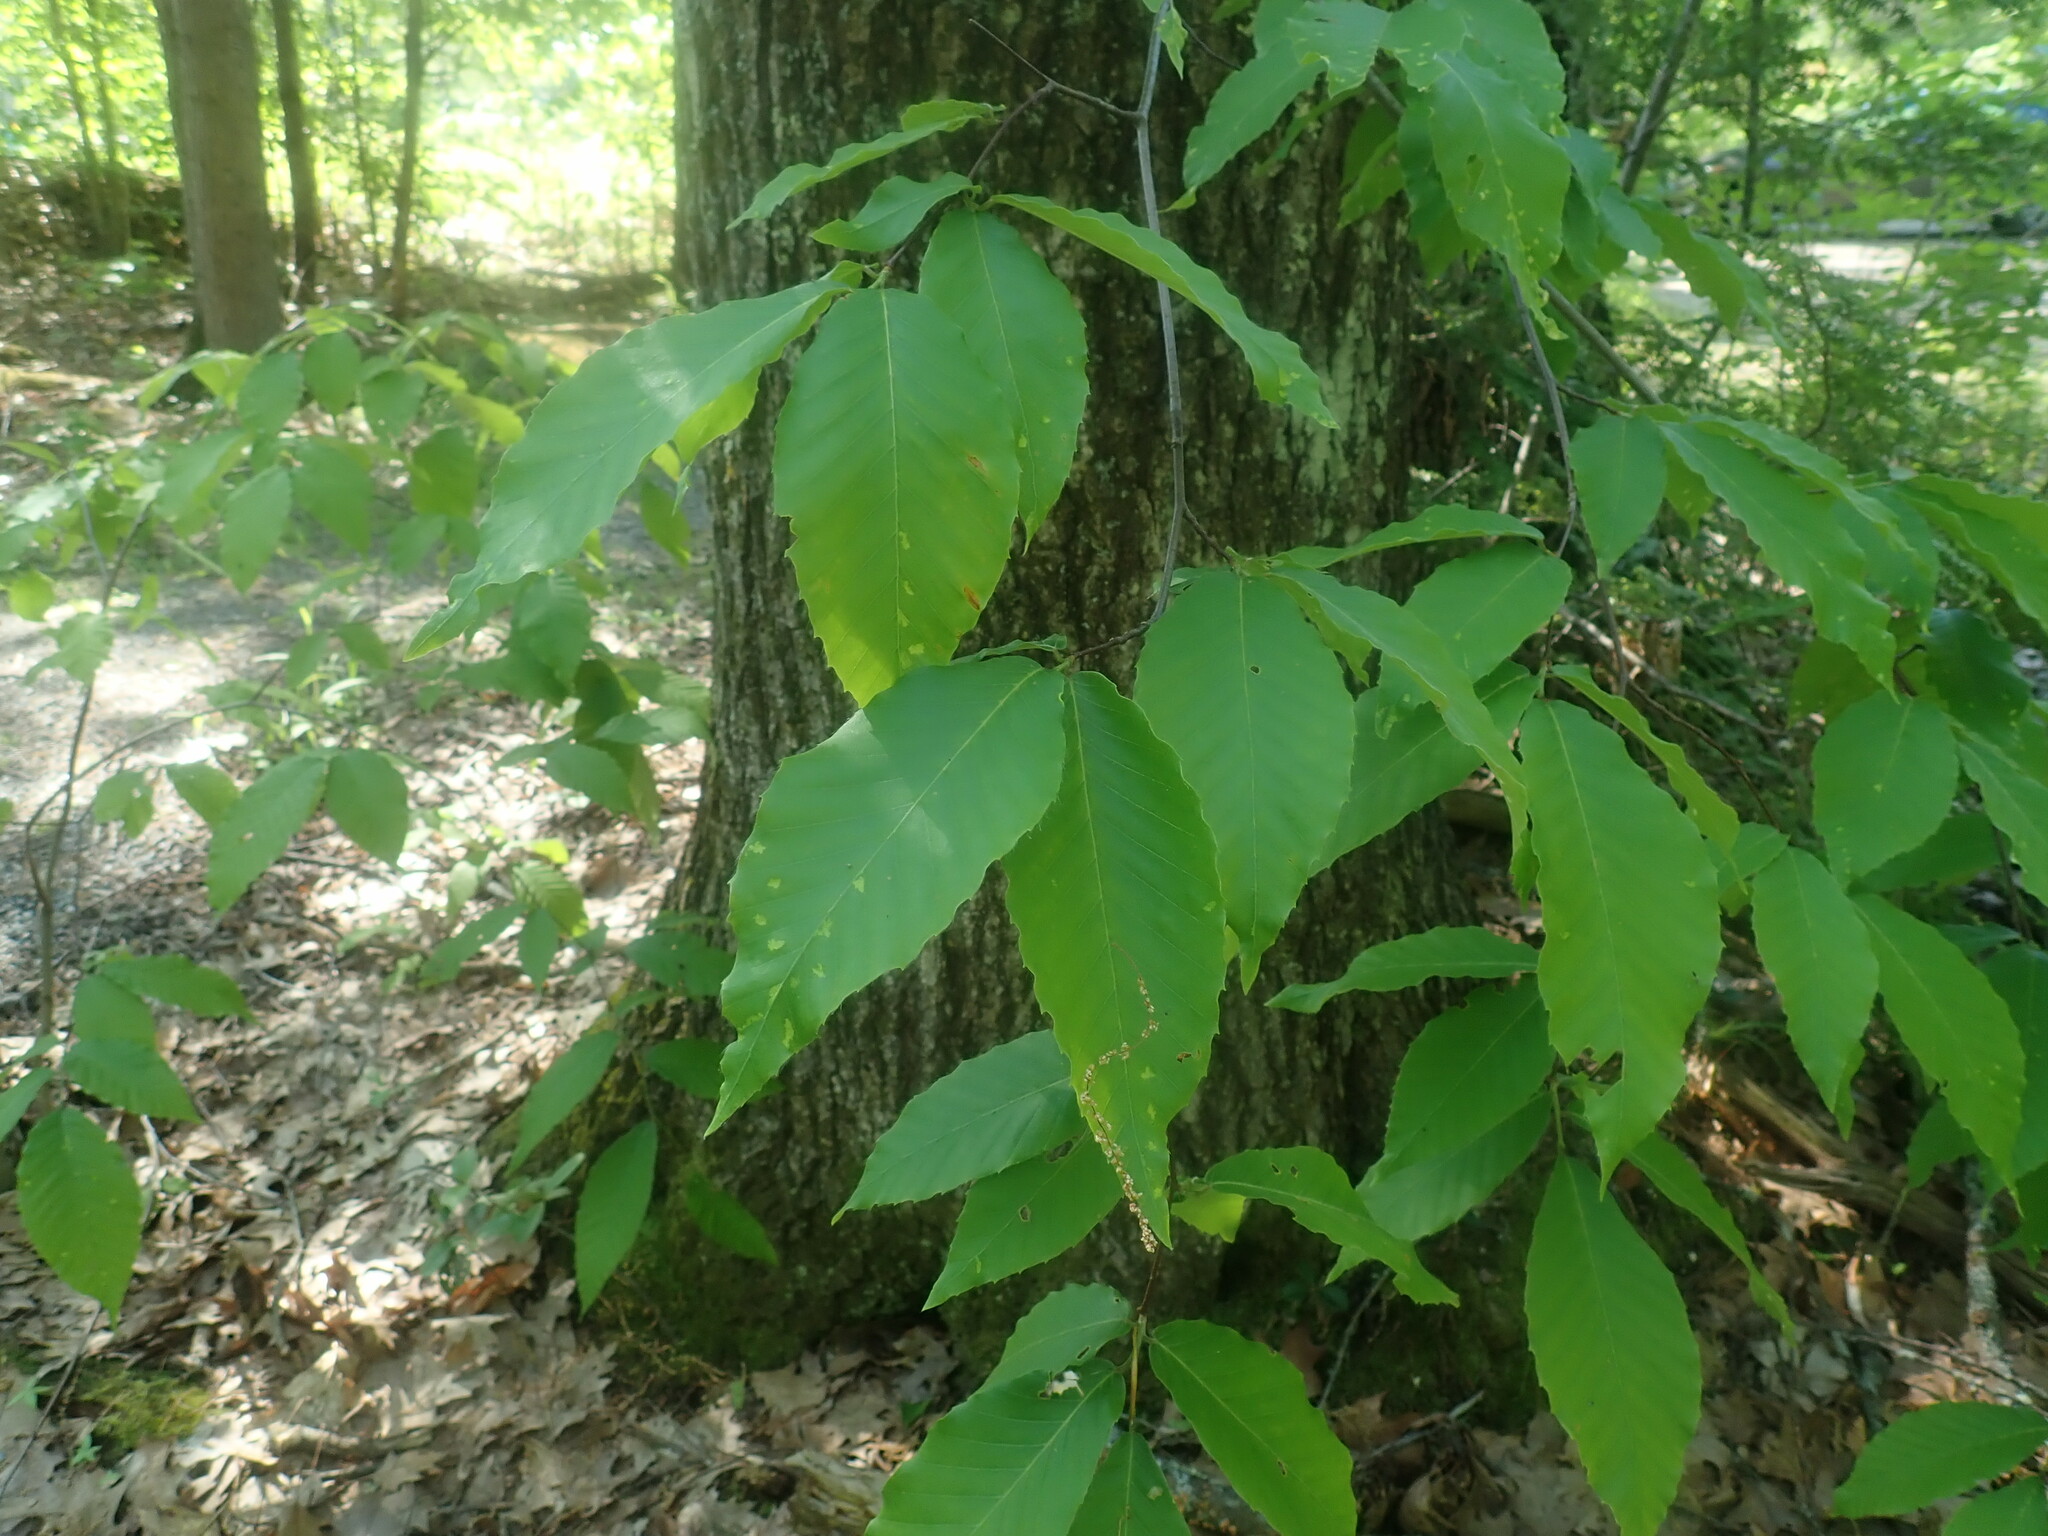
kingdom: Plantae
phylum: Tracheophyta
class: Magnoliopsida
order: Fagales
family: Fagaceae
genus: Fagus
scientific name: Fagus grandifolia
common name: American beech
